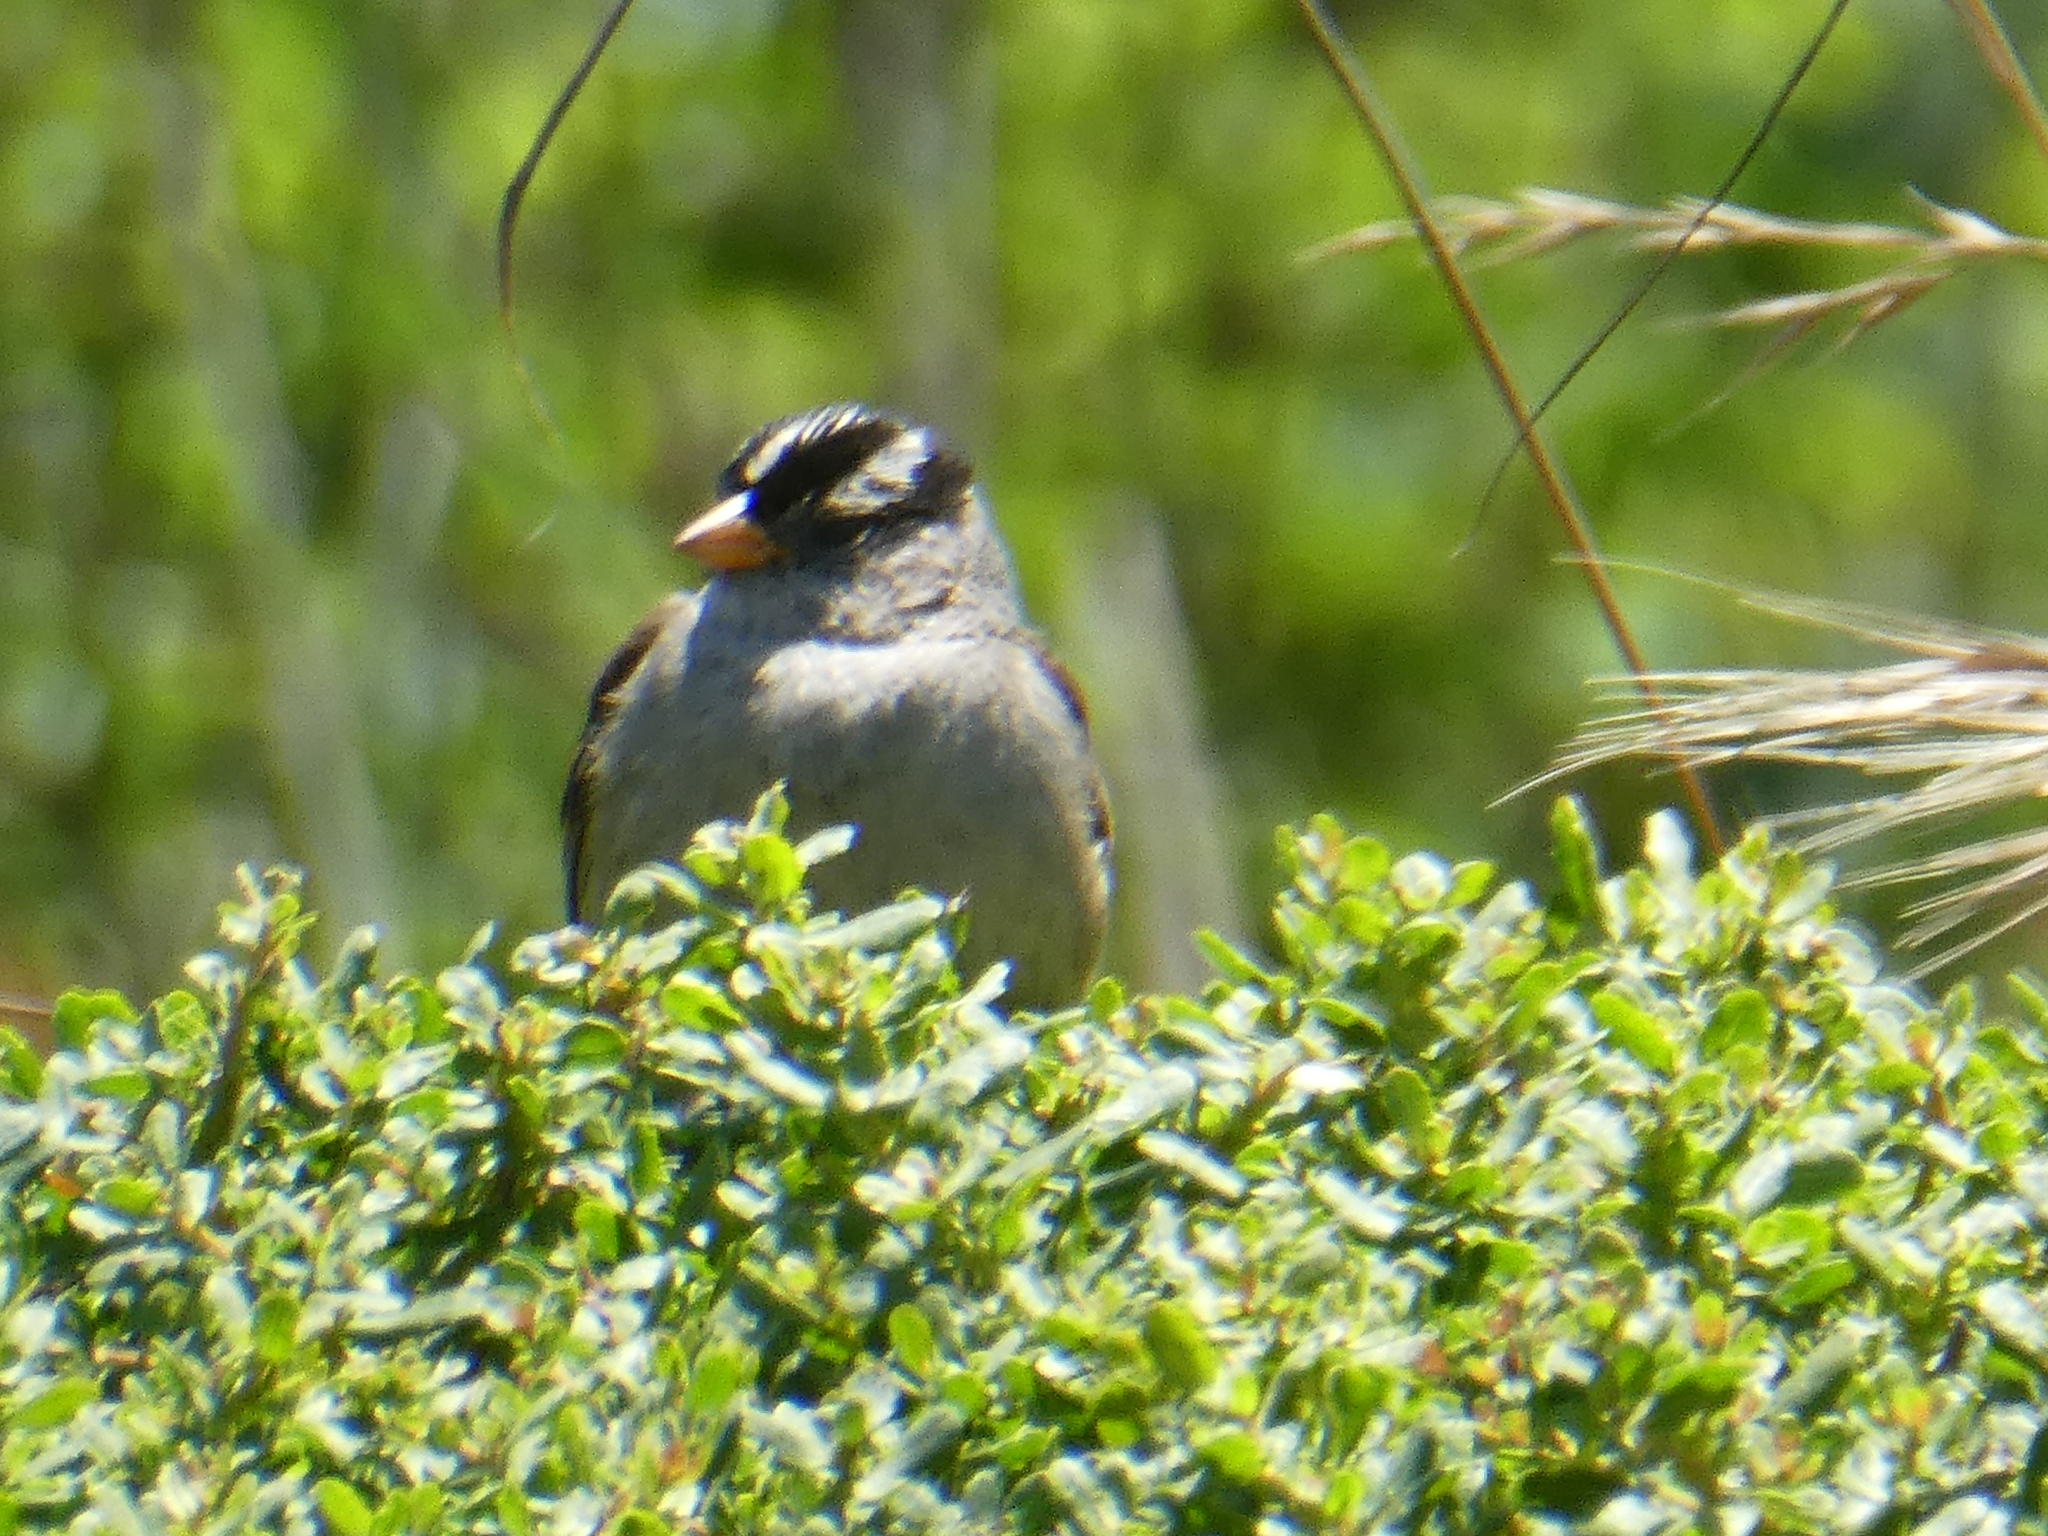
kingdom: Animalia
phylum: Chordata
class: Aves
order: Passeriformes
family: Passerellidae
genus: Zonotrichia
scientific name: Zonotrichia leucophrys
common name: White-crowned sparrow
